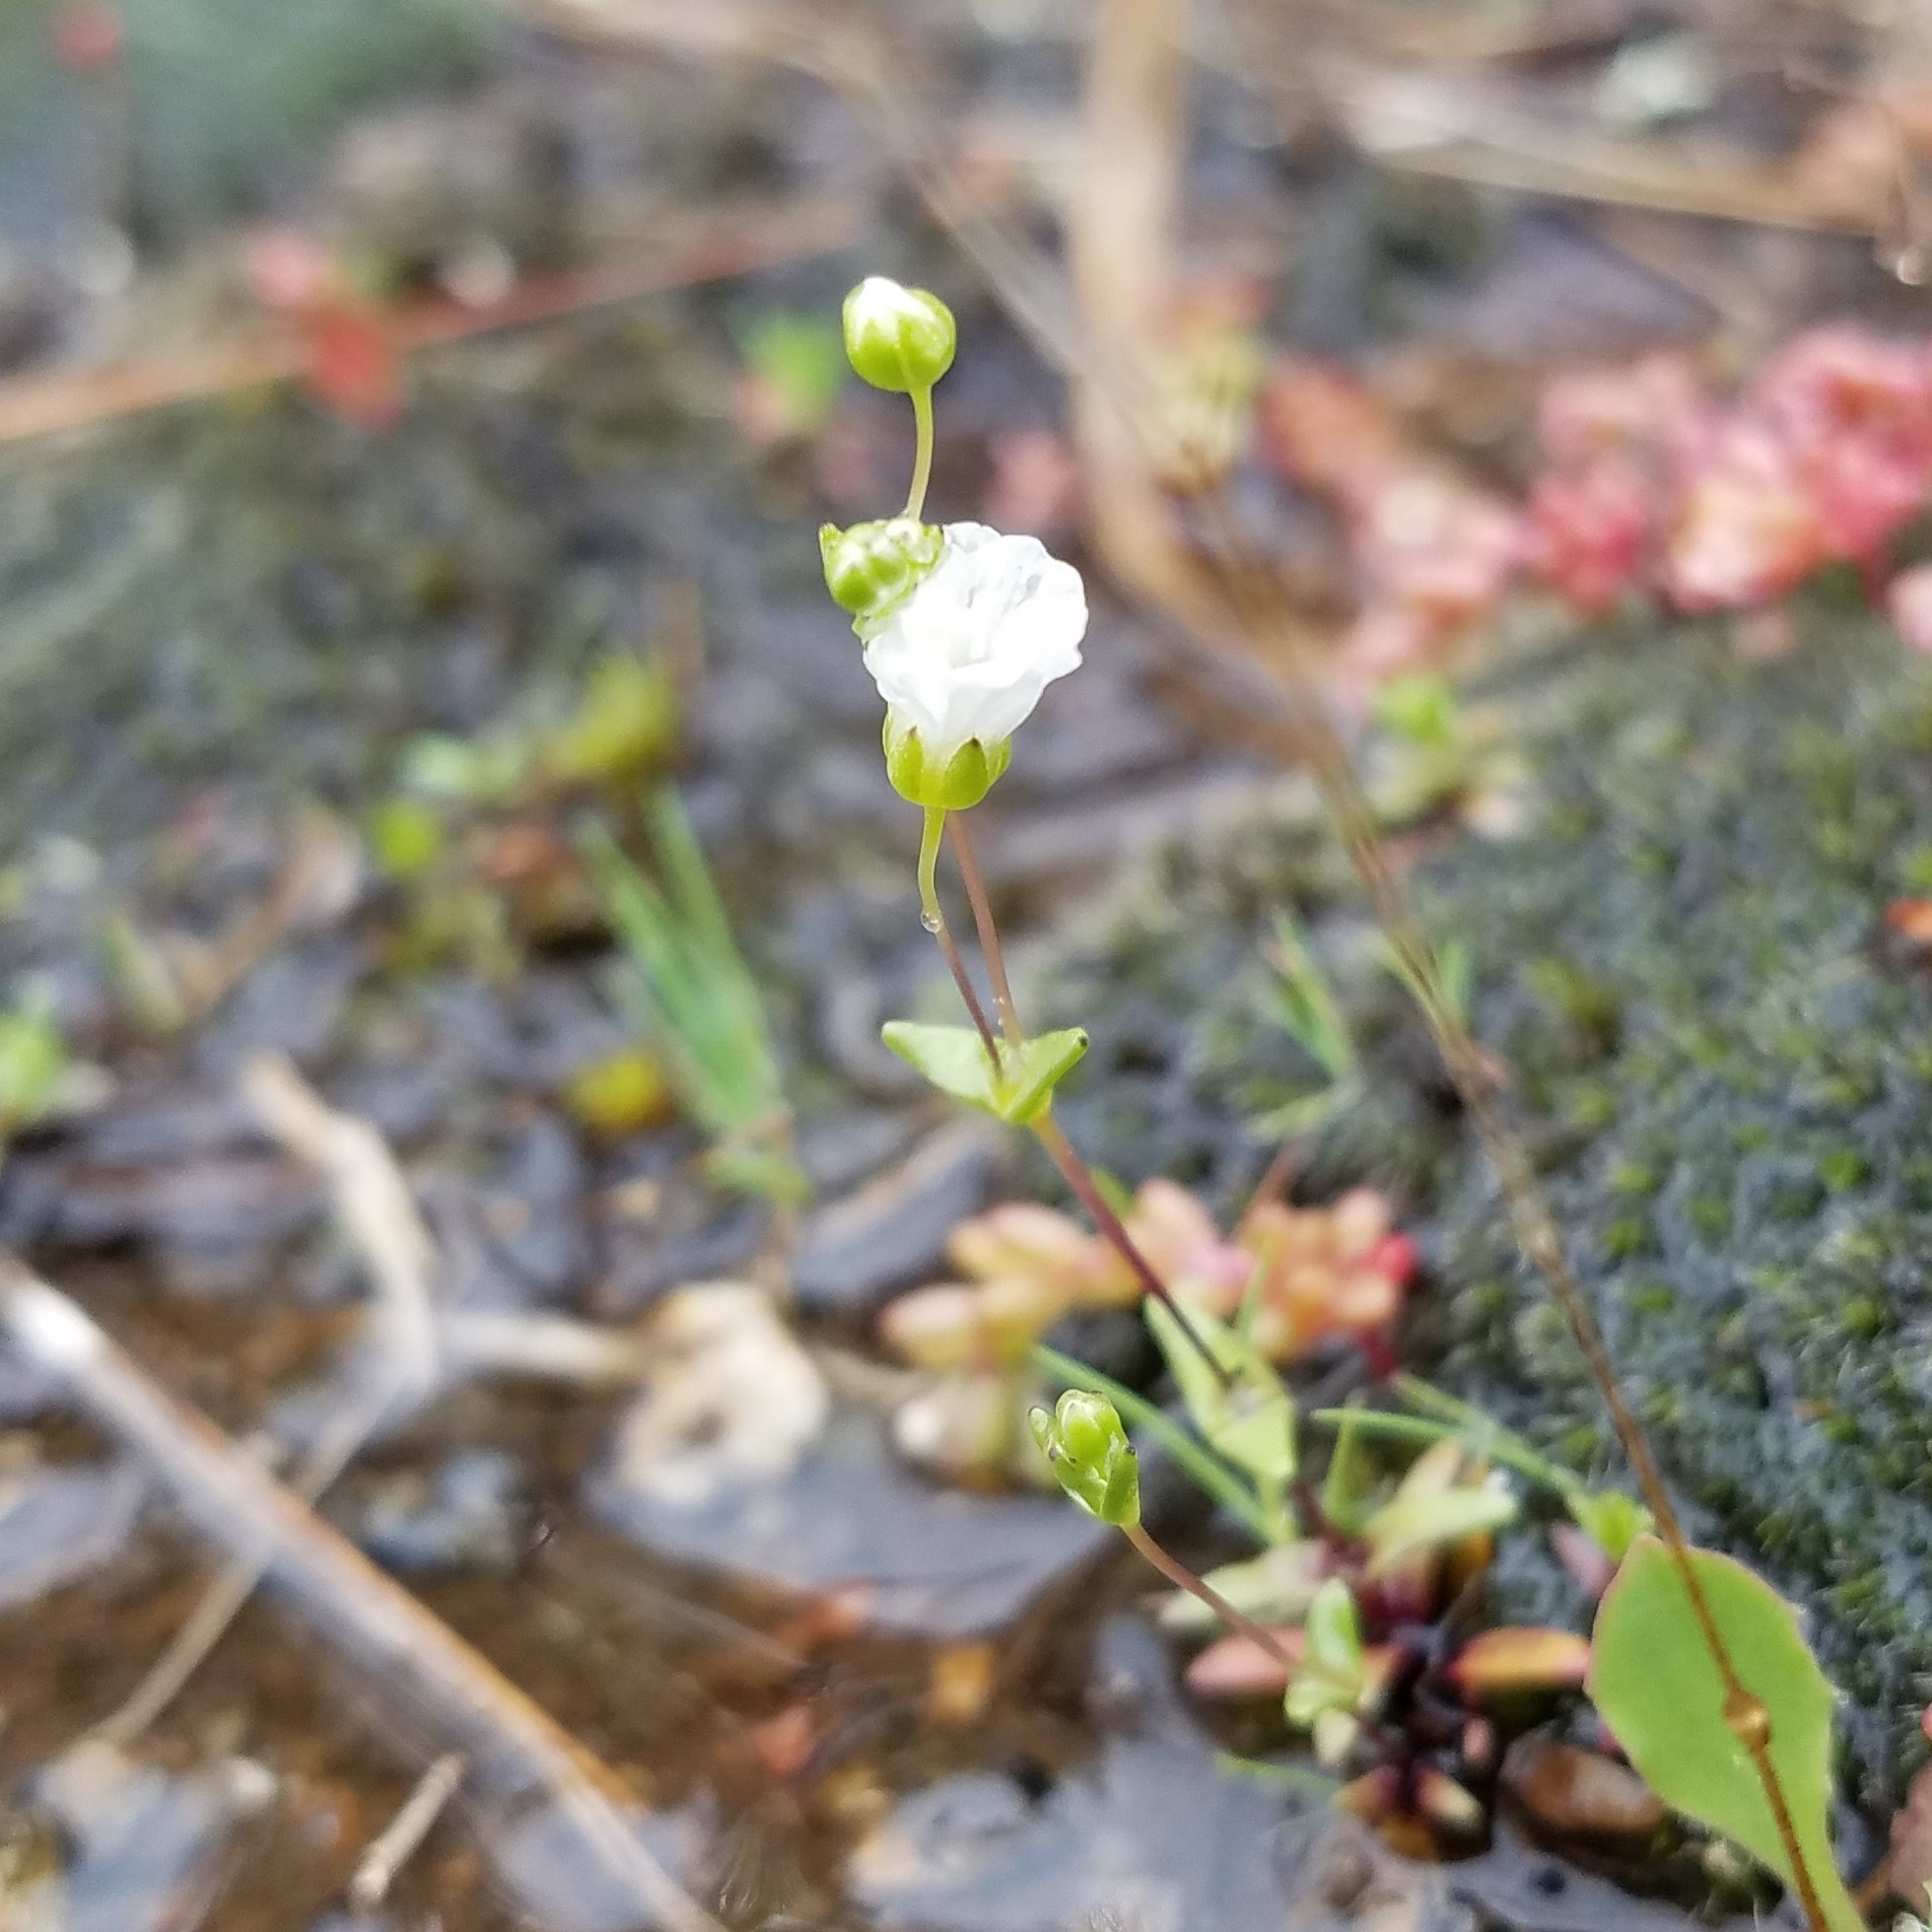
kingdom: Plantae
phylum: Tracheophyta
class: Magnoliopsida
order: Caryophyllales
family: Caryophyllaceae
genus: Geocarpon
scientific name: Geocarpon uniflorum
